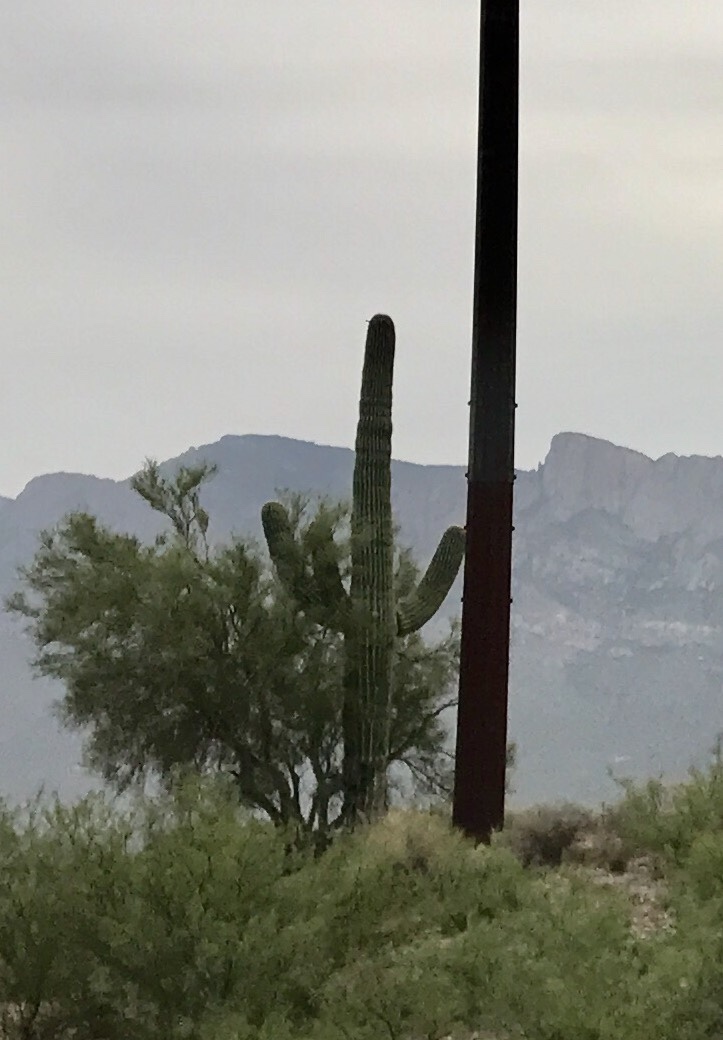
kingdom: Plantae
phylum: Tracheophyta
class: Magnoliopsida
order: Caryophyllales
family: Cactaceae
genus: Carnegiea
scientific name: Carnegiea gigantea
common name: Saguaro
